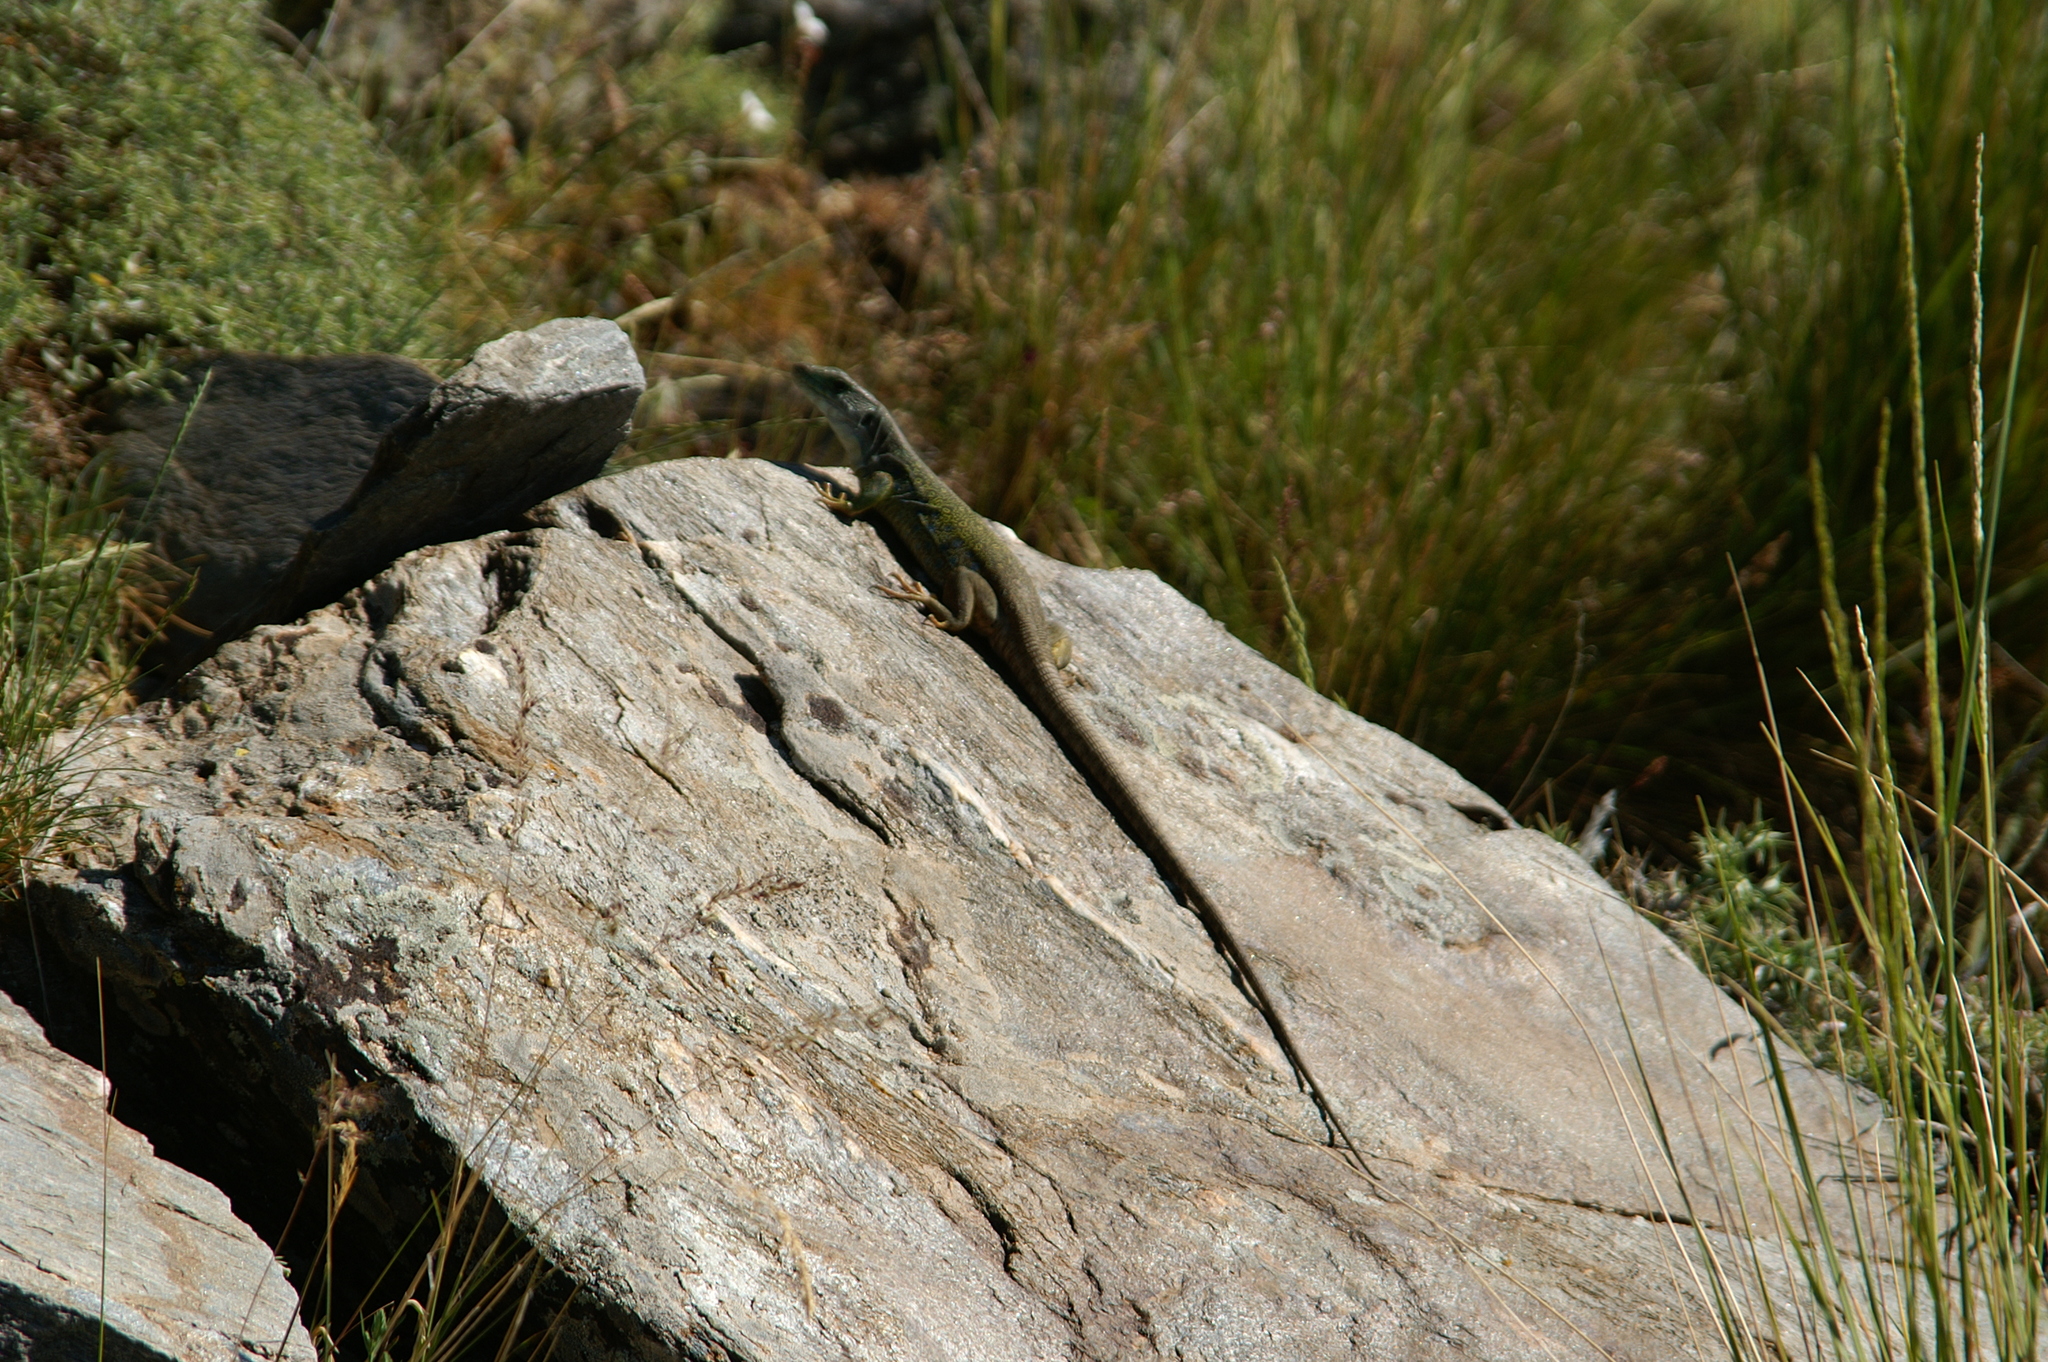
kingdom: Animalia
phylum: Chordata
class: Squamata
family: Lacertidae
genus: Timon
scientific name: Timon nevadensis
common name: Sierra nevada (ocellated) lizard
